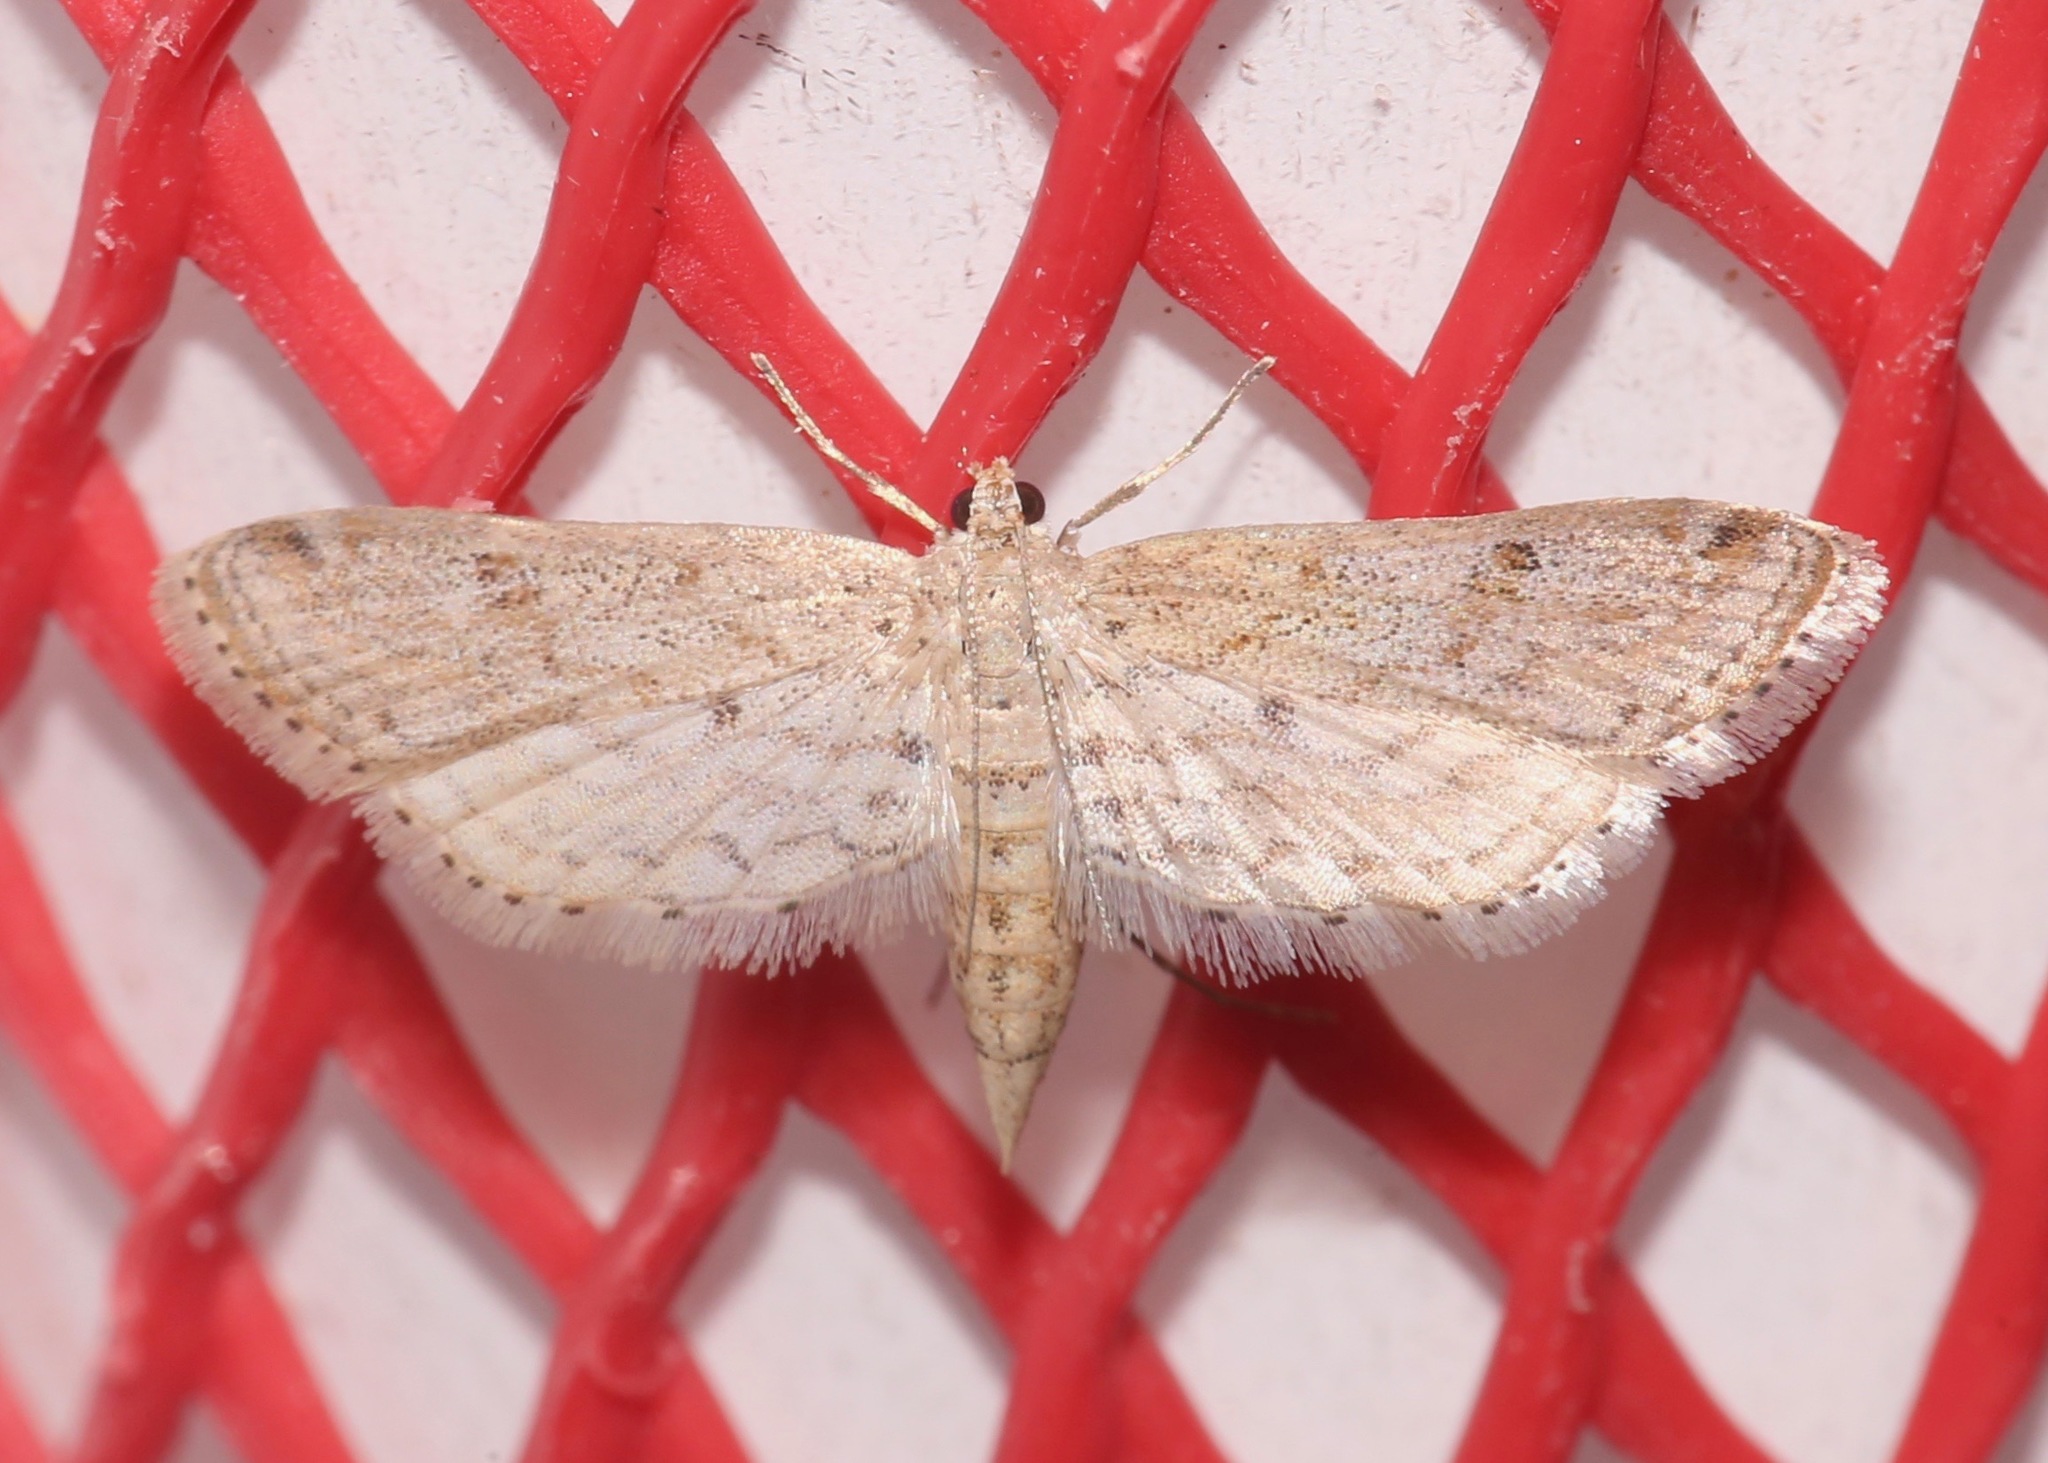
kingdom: Animalia
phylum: Arthropoda
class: Insecta
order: Lepidoptera
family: Crambidae
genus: Parapoynx
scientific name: Parapoynx allionealis
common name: Bladderwort casemaker
